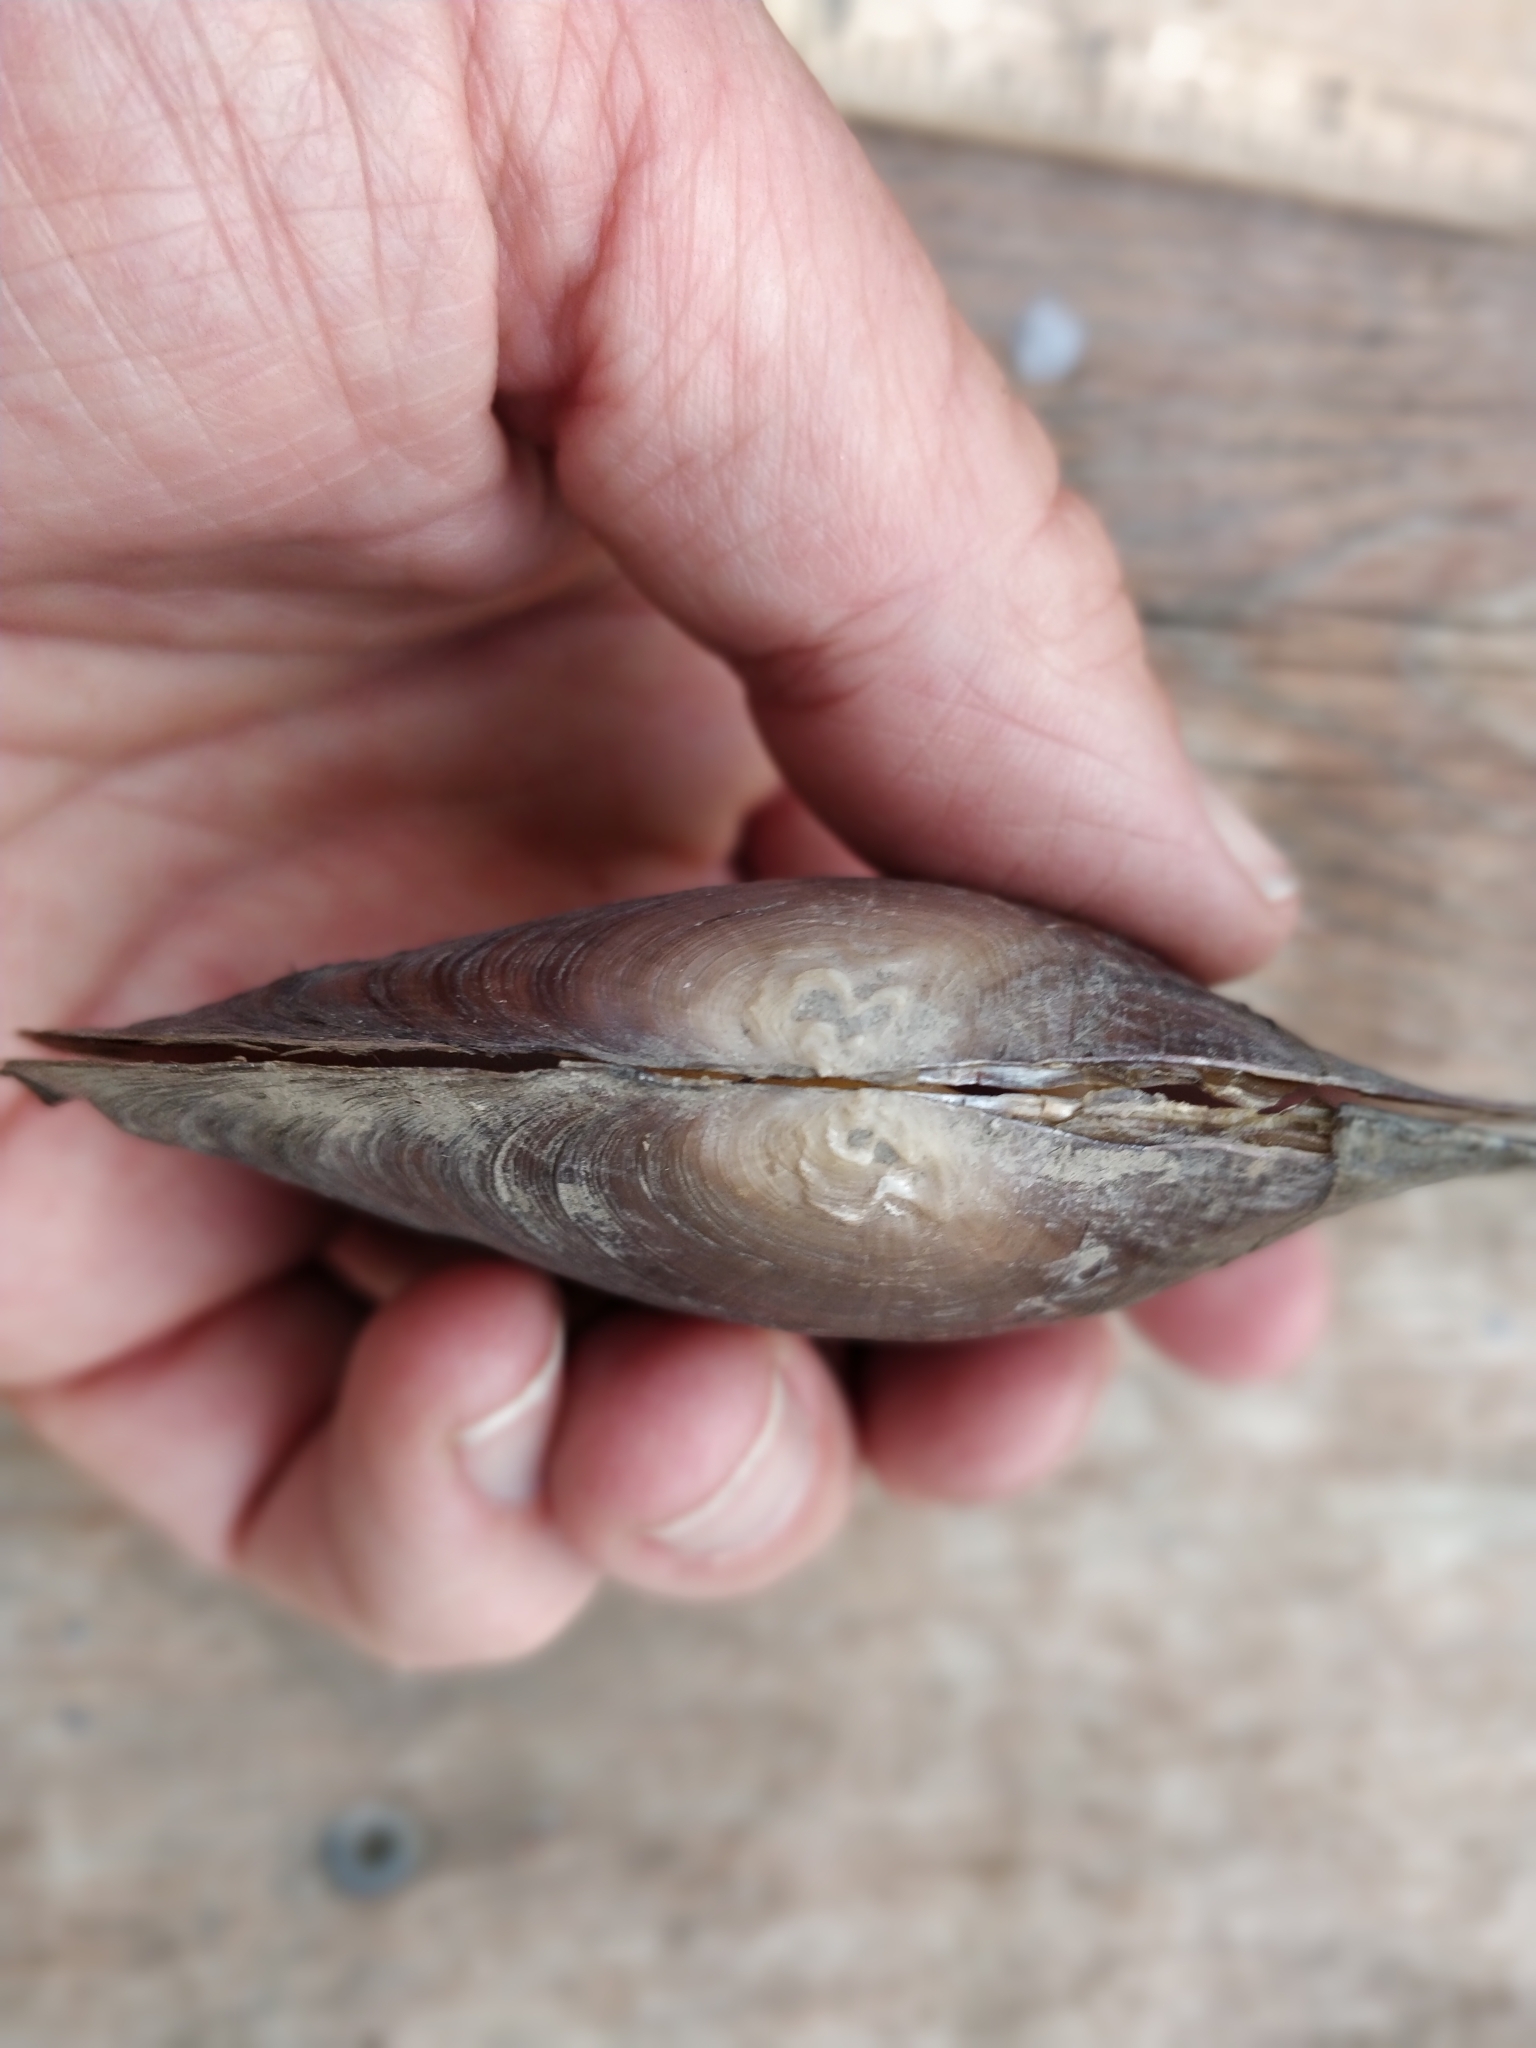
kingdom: Animalia
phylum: Mollusca
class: Bivalvia
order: Unionida
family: Unionidae
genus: Lasmigona
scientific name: Lasmigona complanata
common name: White heelsplitter
